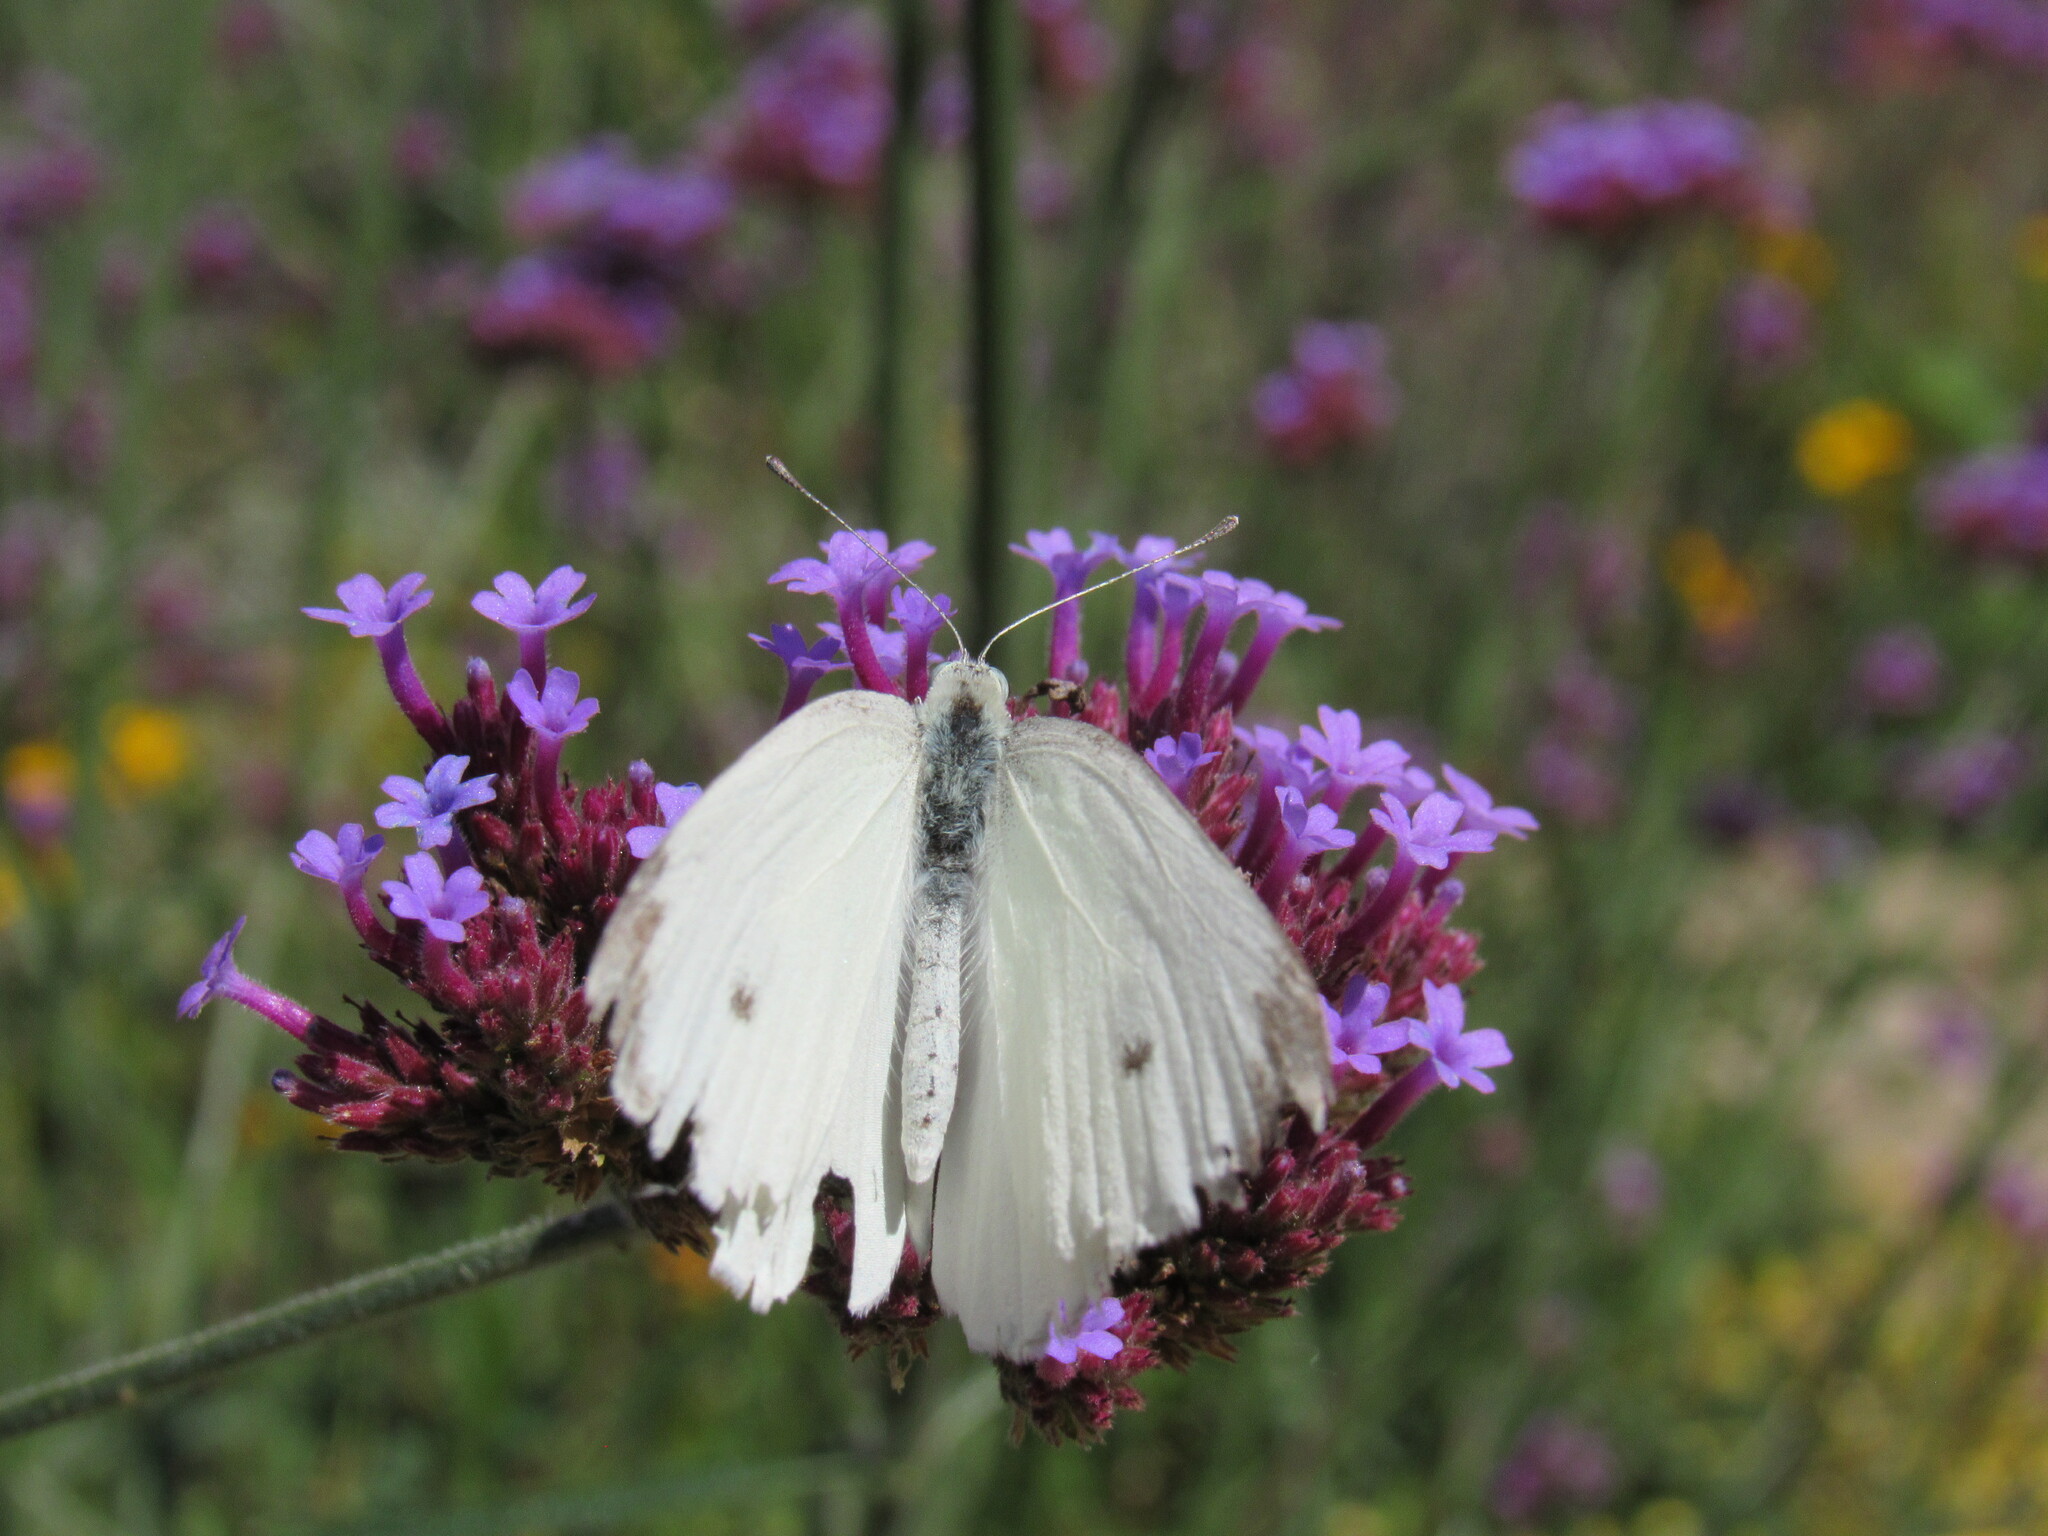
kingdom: Animalia
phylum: Arthropoda
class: Insecta
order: Lepidoptera
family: Pieridae
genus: Pieris
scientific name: Pieris rapae
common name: Small white
